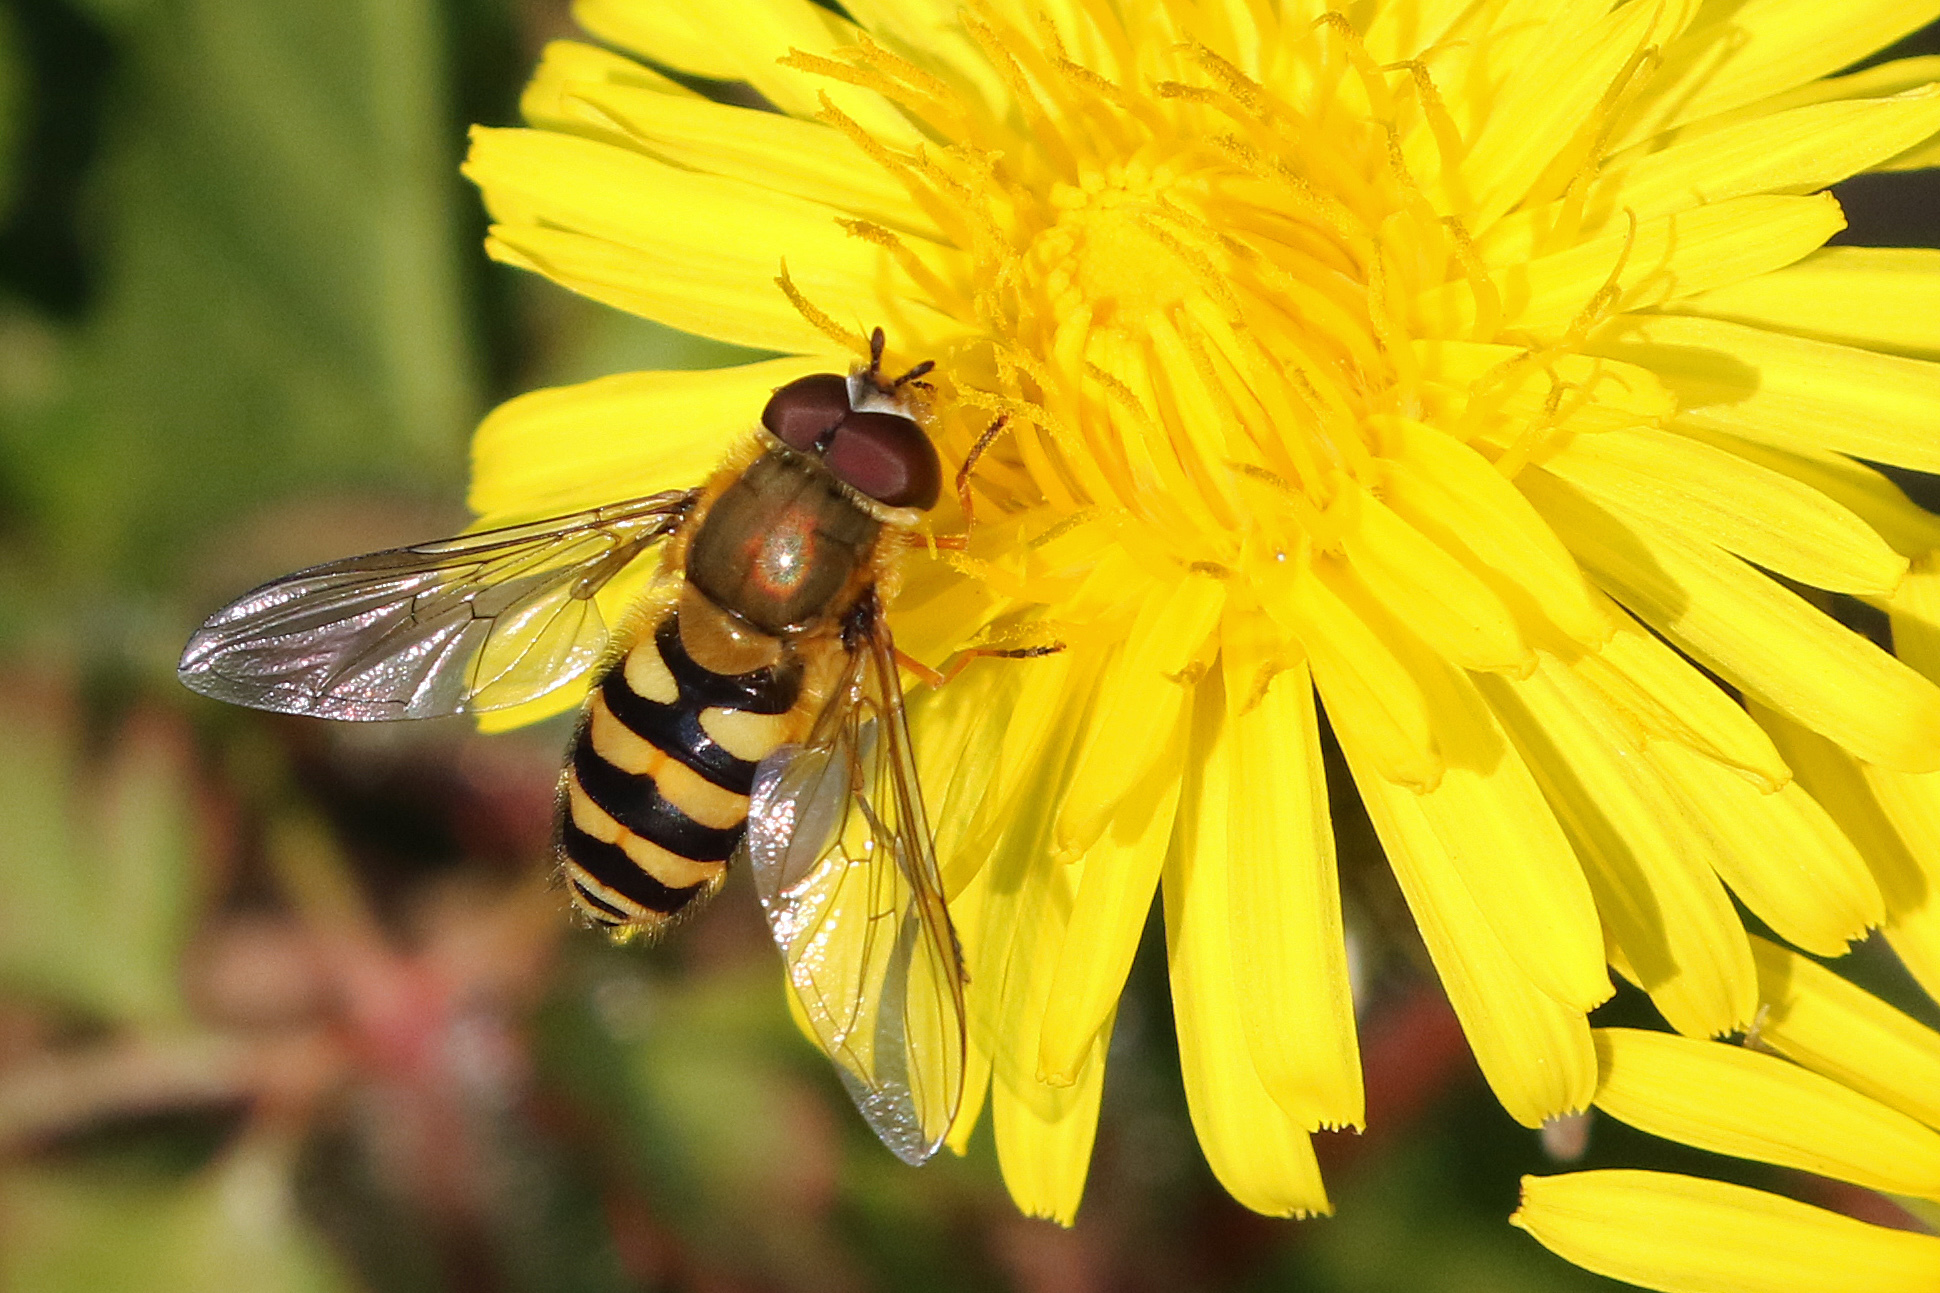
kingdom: Animalia
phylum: Arthropoda
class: Insecta
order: Diptera
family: Syrphidae
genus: Syrphus
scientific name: Syrphus
